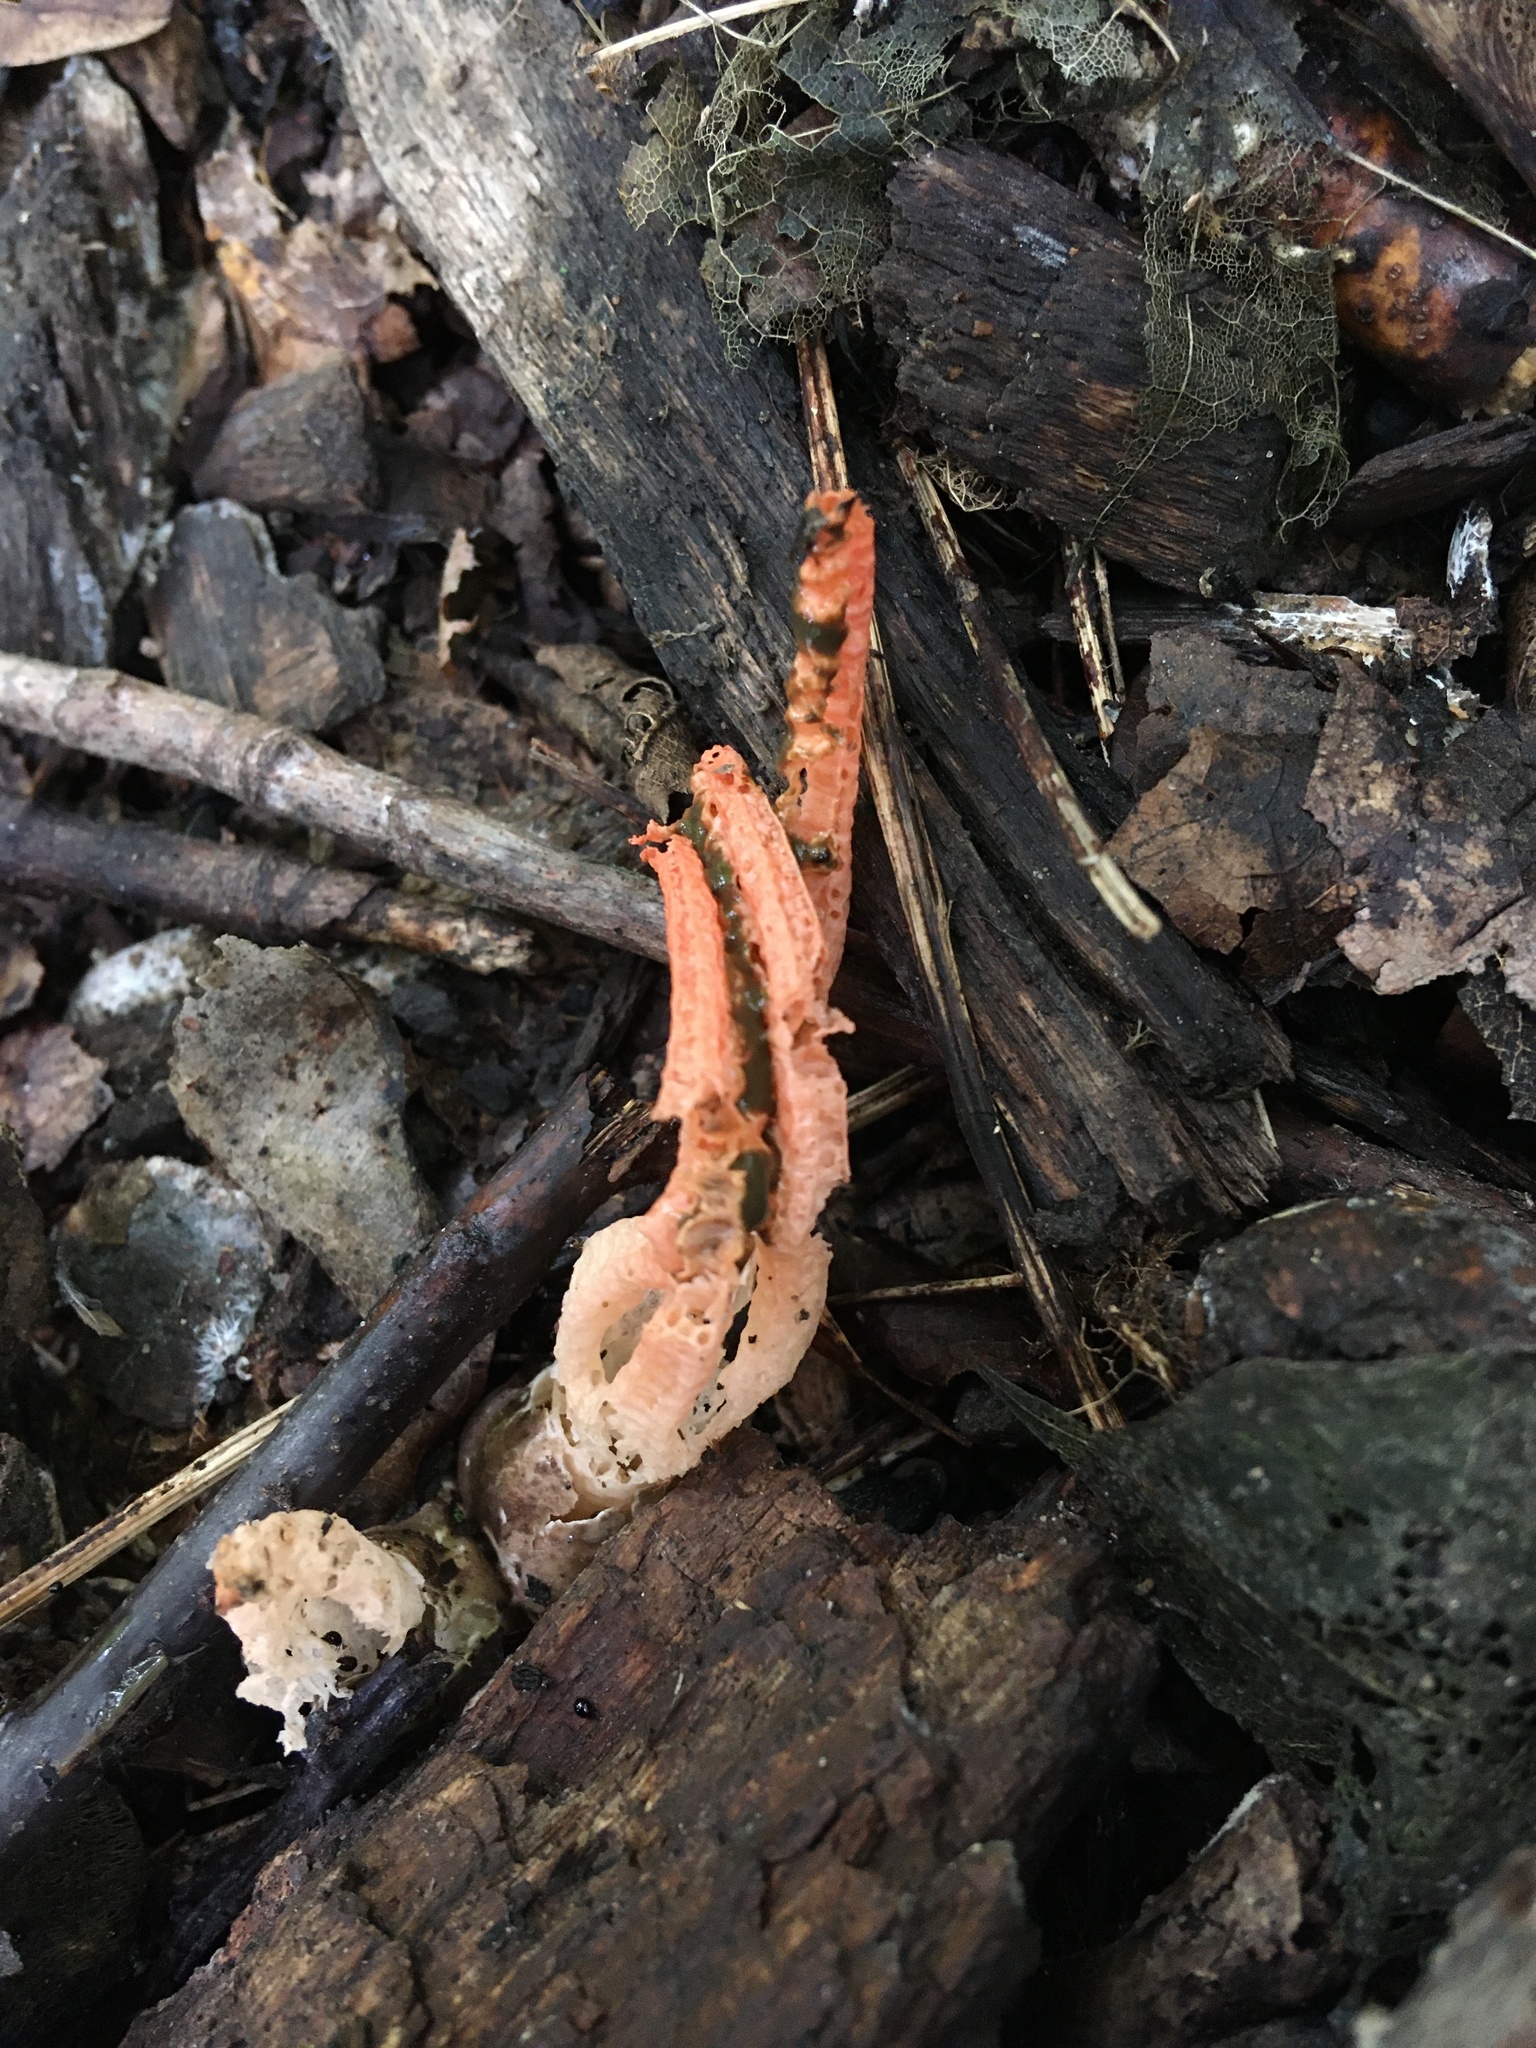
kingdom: Fungi
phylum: Basidiomycota
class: Agaricomycetes
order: Phallales
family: Phallaceae
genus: Pseudocolus
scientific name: Pseudocolus fusiformis
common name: Stinky squid
